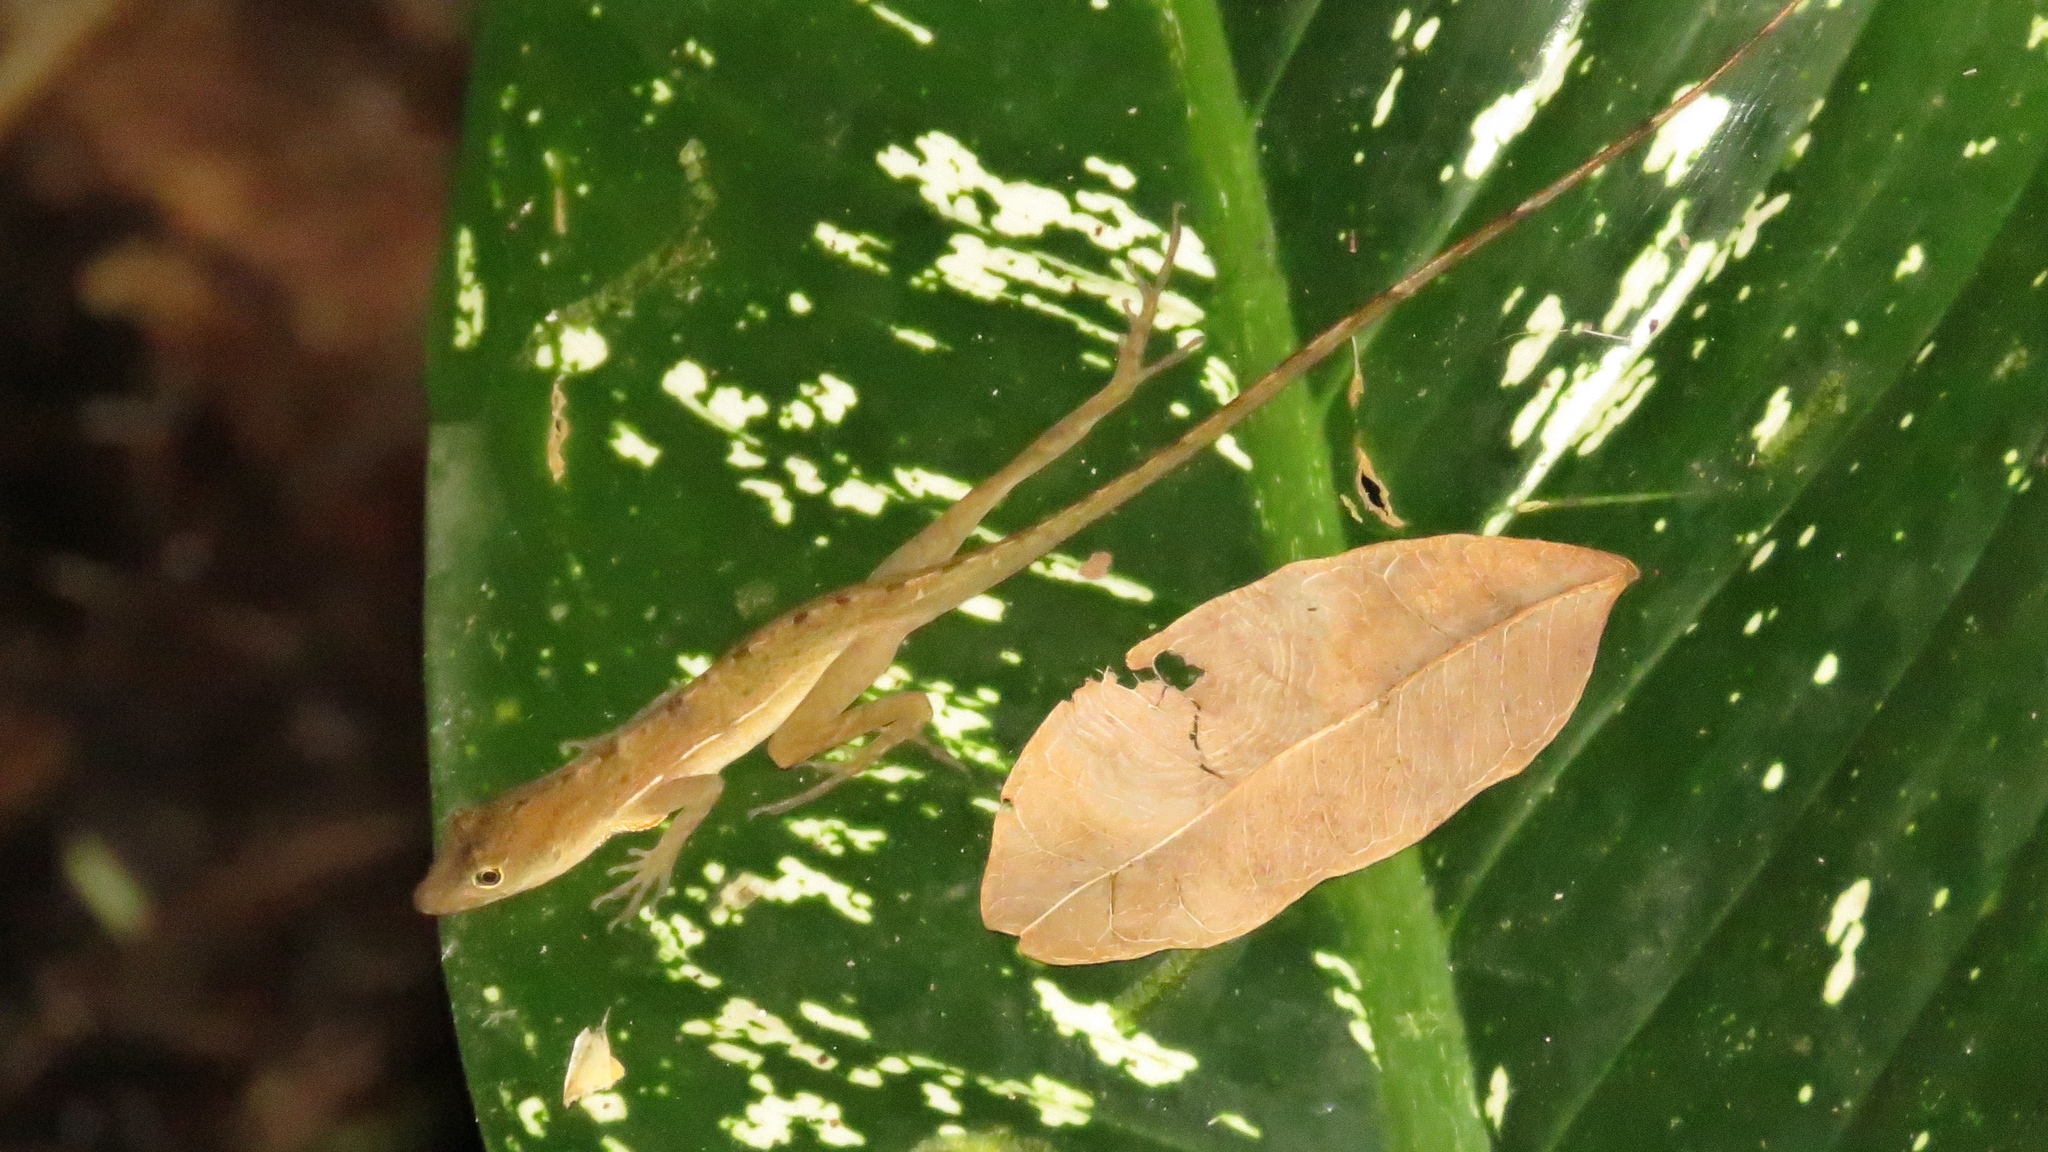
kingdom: Animalia
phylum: Chordata
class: Squamata
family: Dactyloidae
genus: Anolis
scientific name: Anolis polylepis
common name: Many-scaled anole
